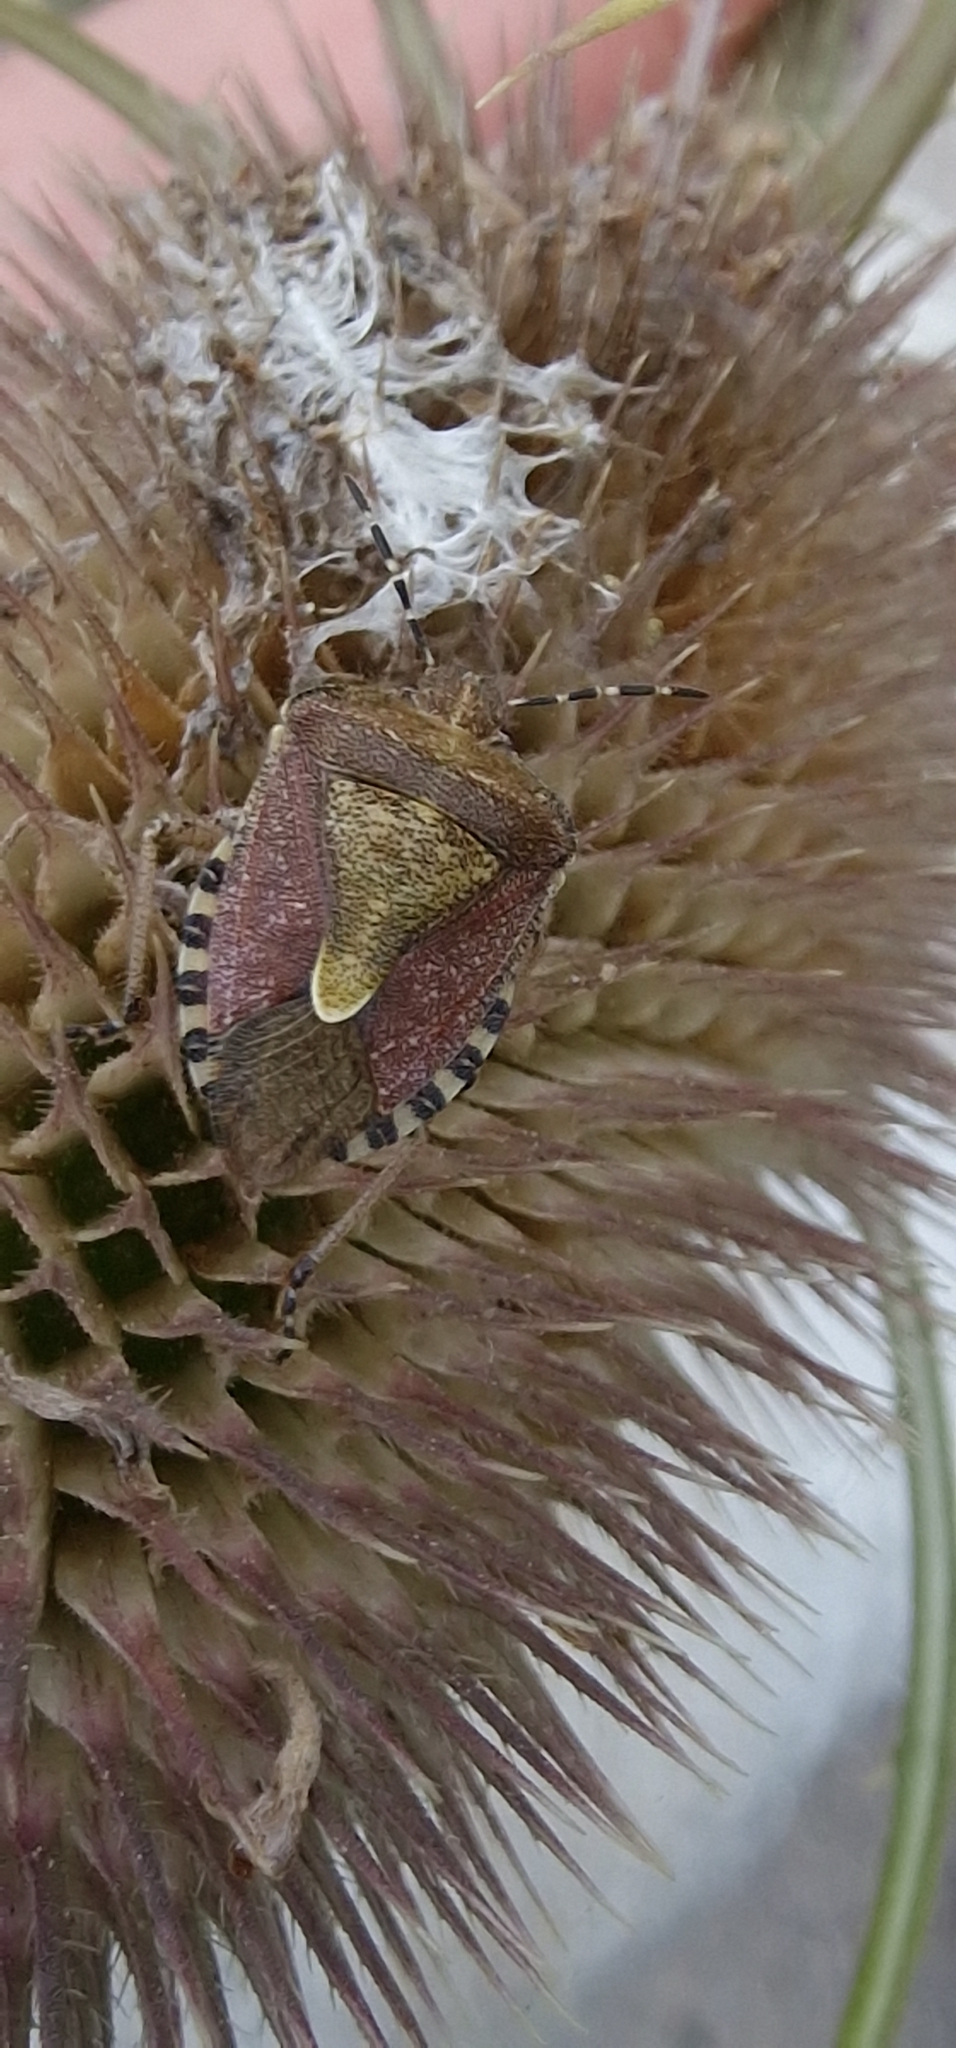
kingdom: Animalia
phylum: Arthropoda
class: Insecta
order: Hemiptera
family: Pentatomidae
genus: Dolycoris
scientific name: Dolycoris baccarum
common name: Sloe bug
